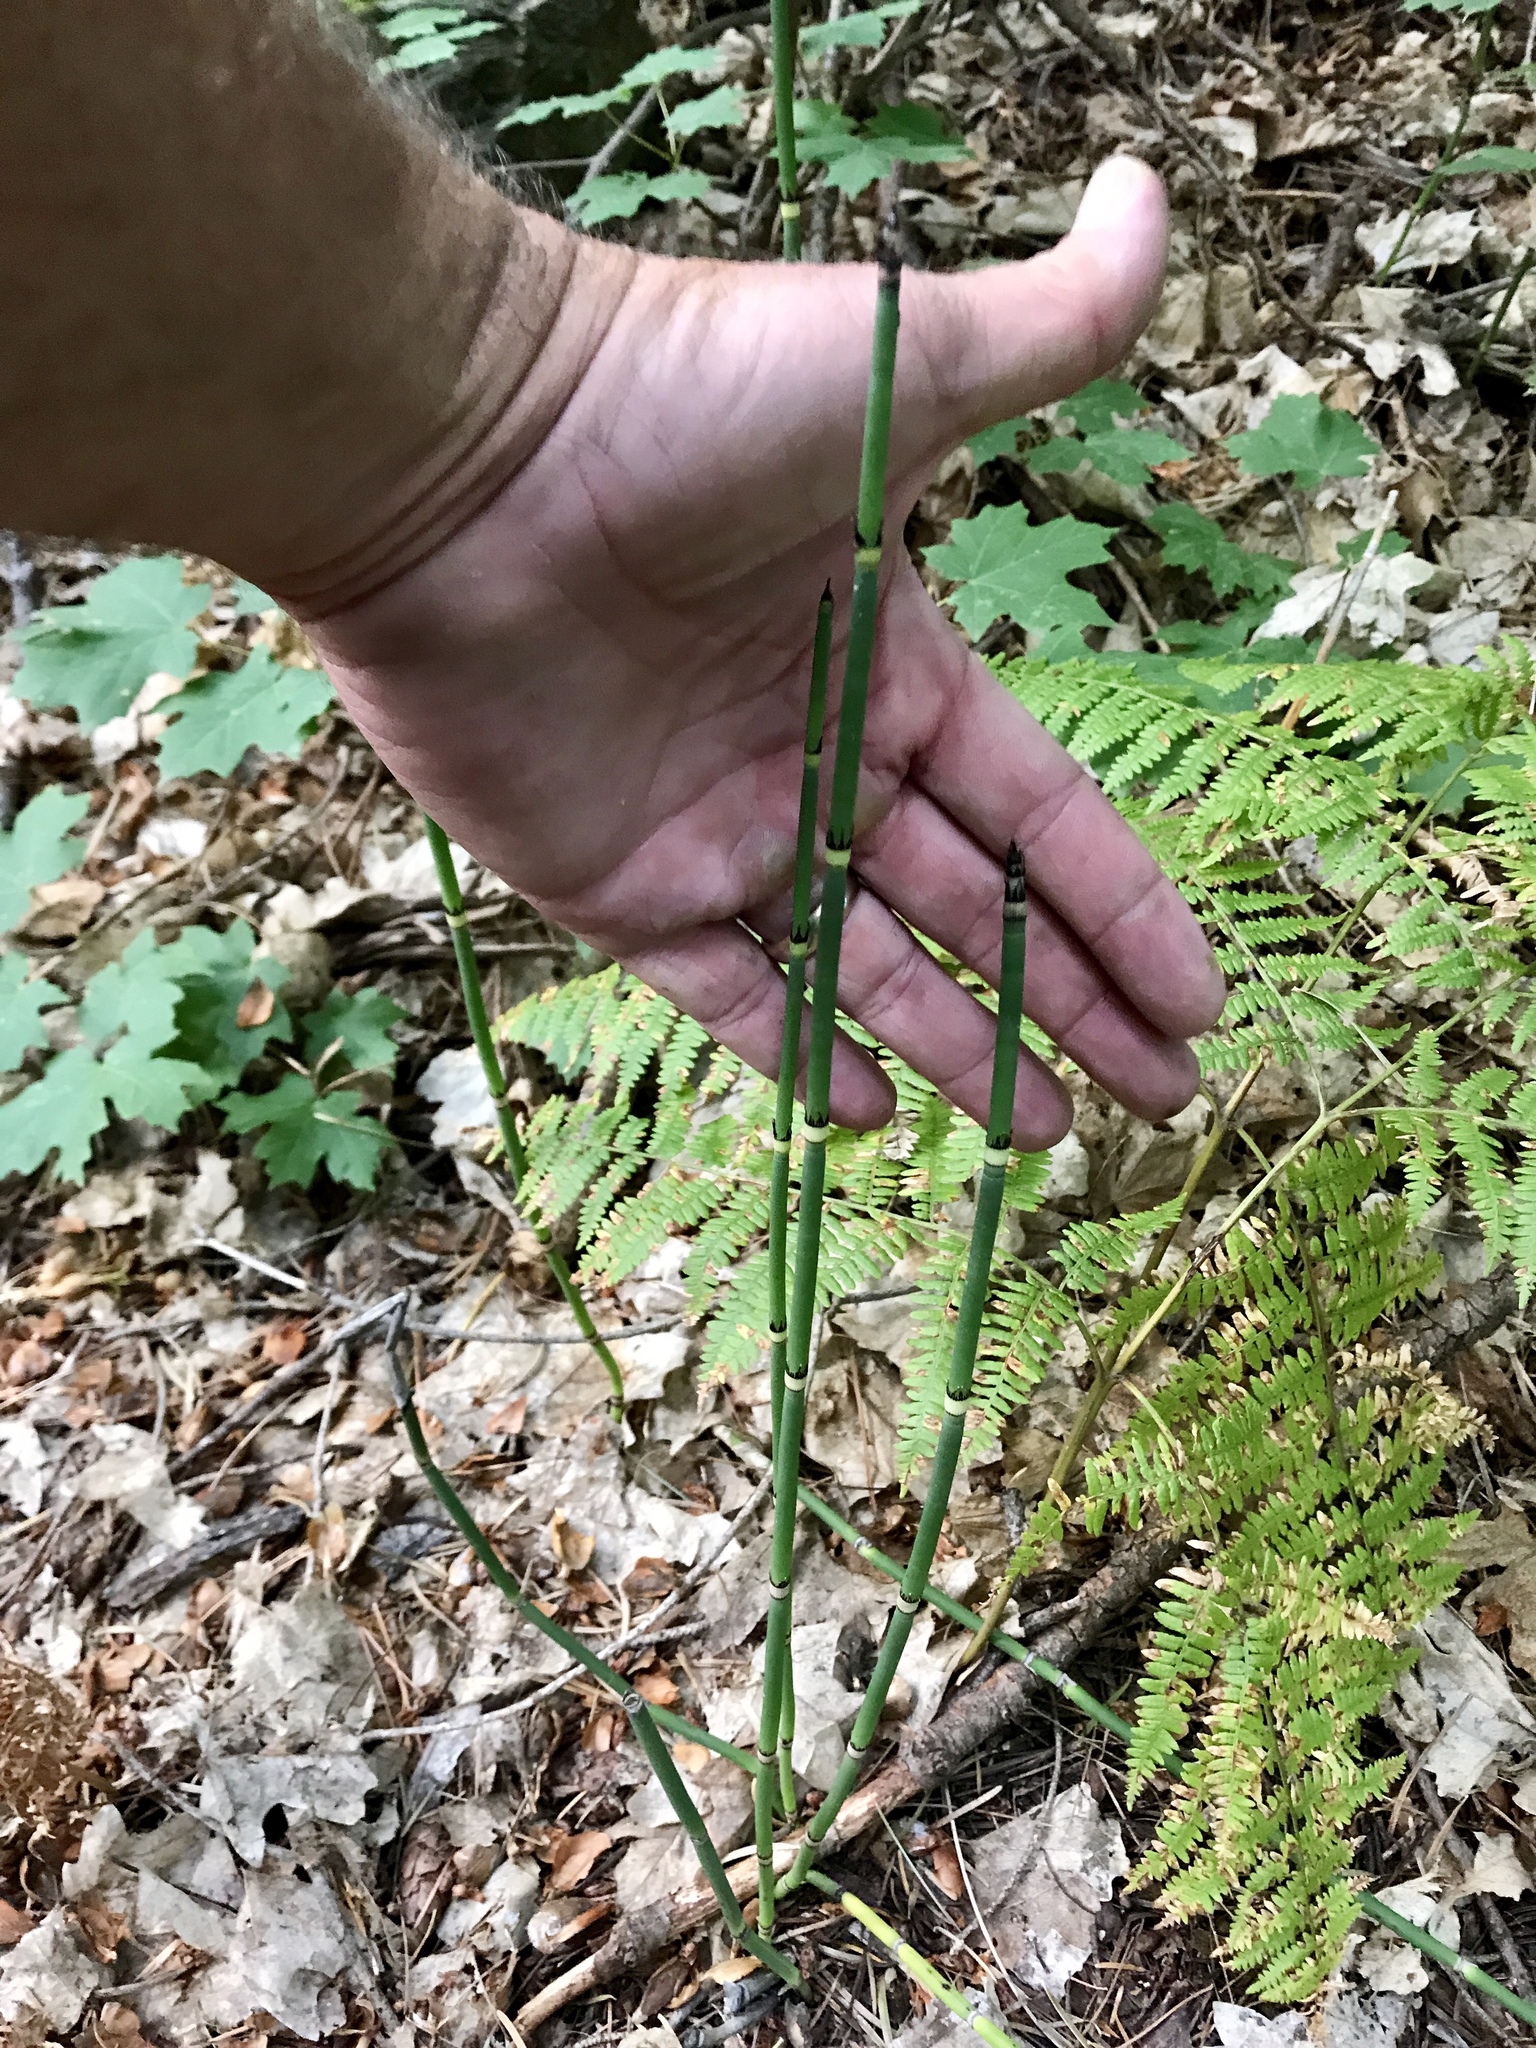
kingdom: Plantae
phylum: Tracheophyta
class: Polypodiopsida
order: Equisetales
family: Equisetaceae
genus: Equisetum
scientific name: Equisetum hyemale
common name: Rough horsetail
